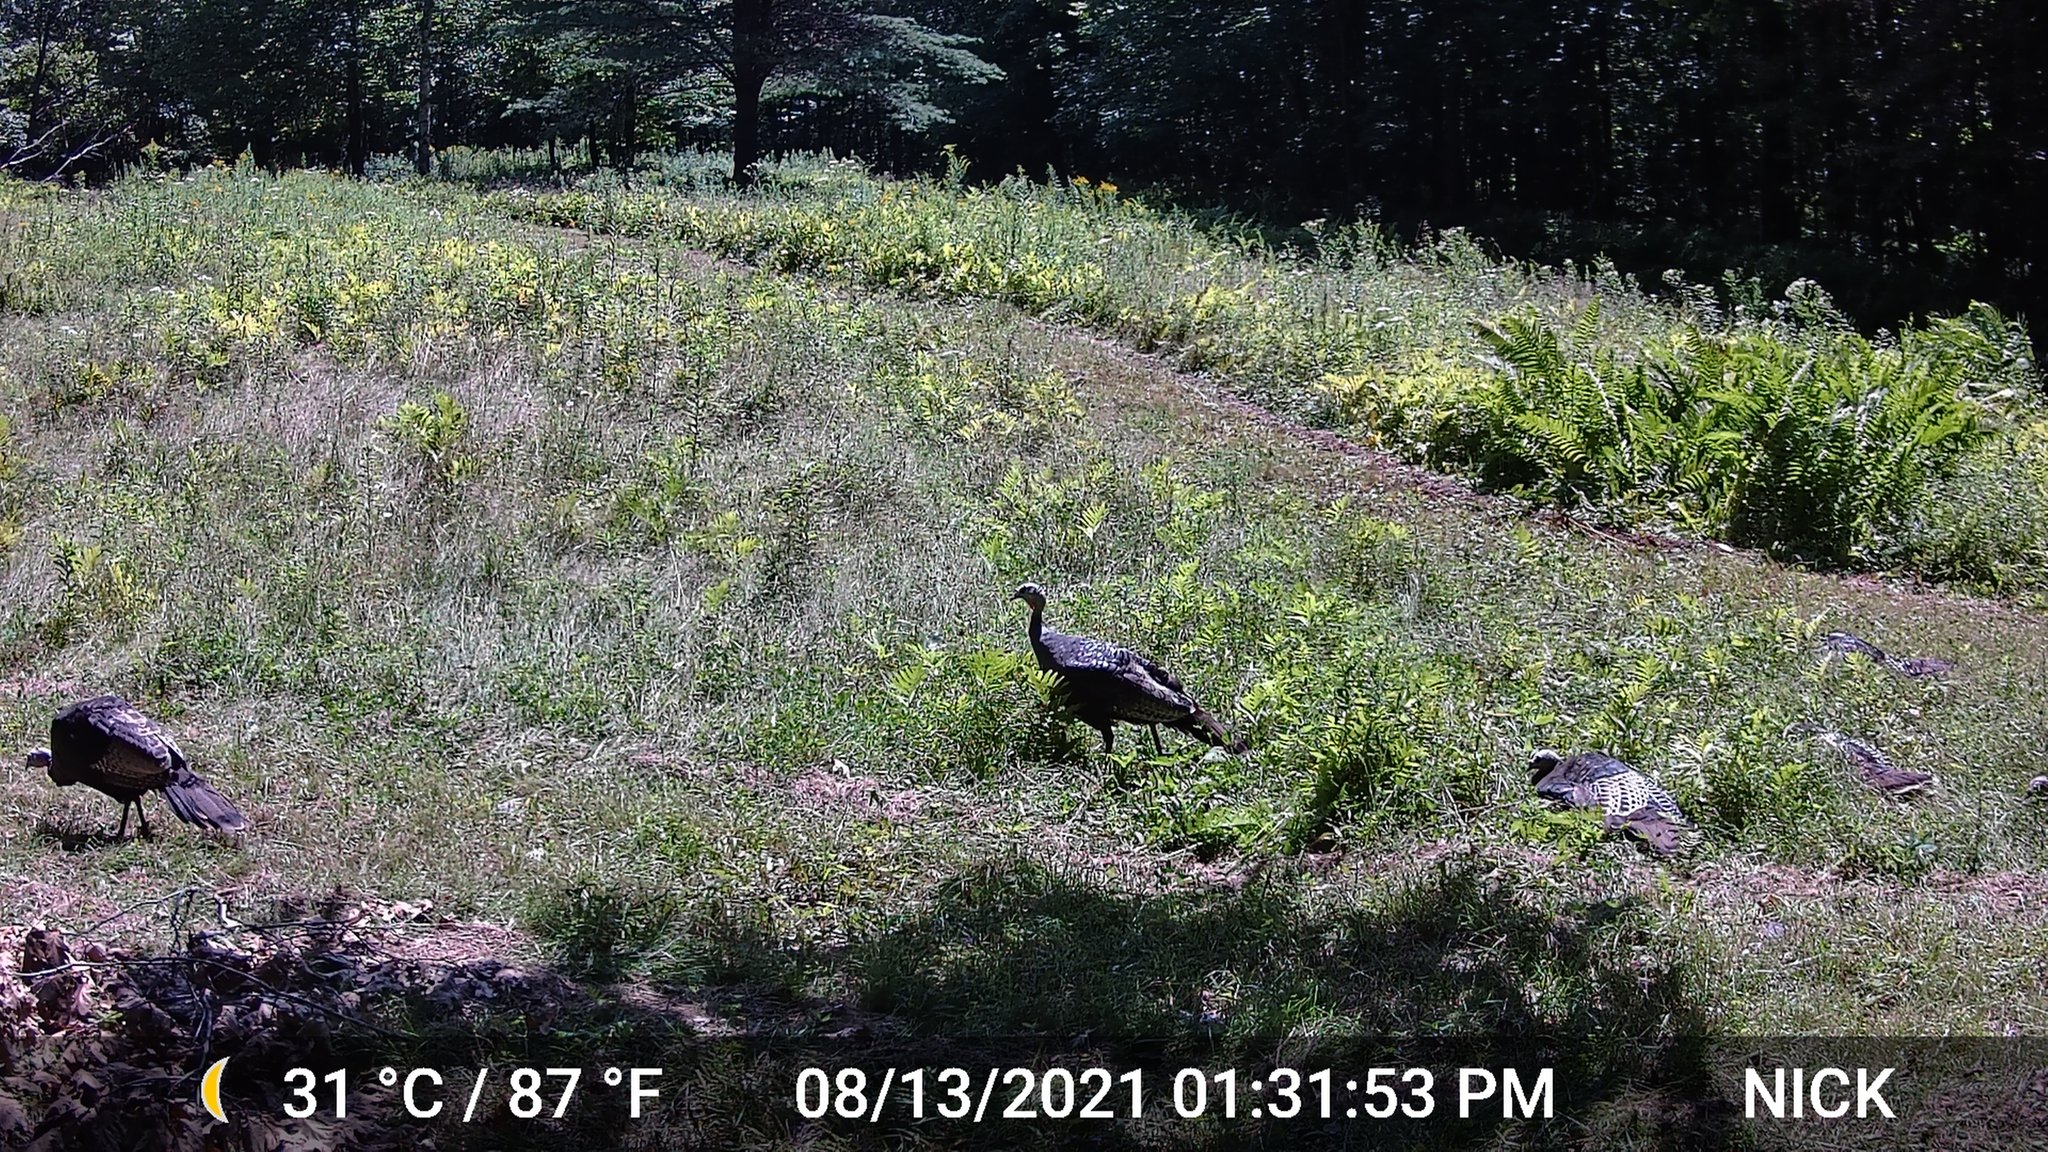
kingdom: Animalia
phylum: Chordata
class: Aves
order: Galliformes
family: Phasianidae
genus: Meleagris
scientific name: Meleagris gallopavo
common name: Wild turkey
